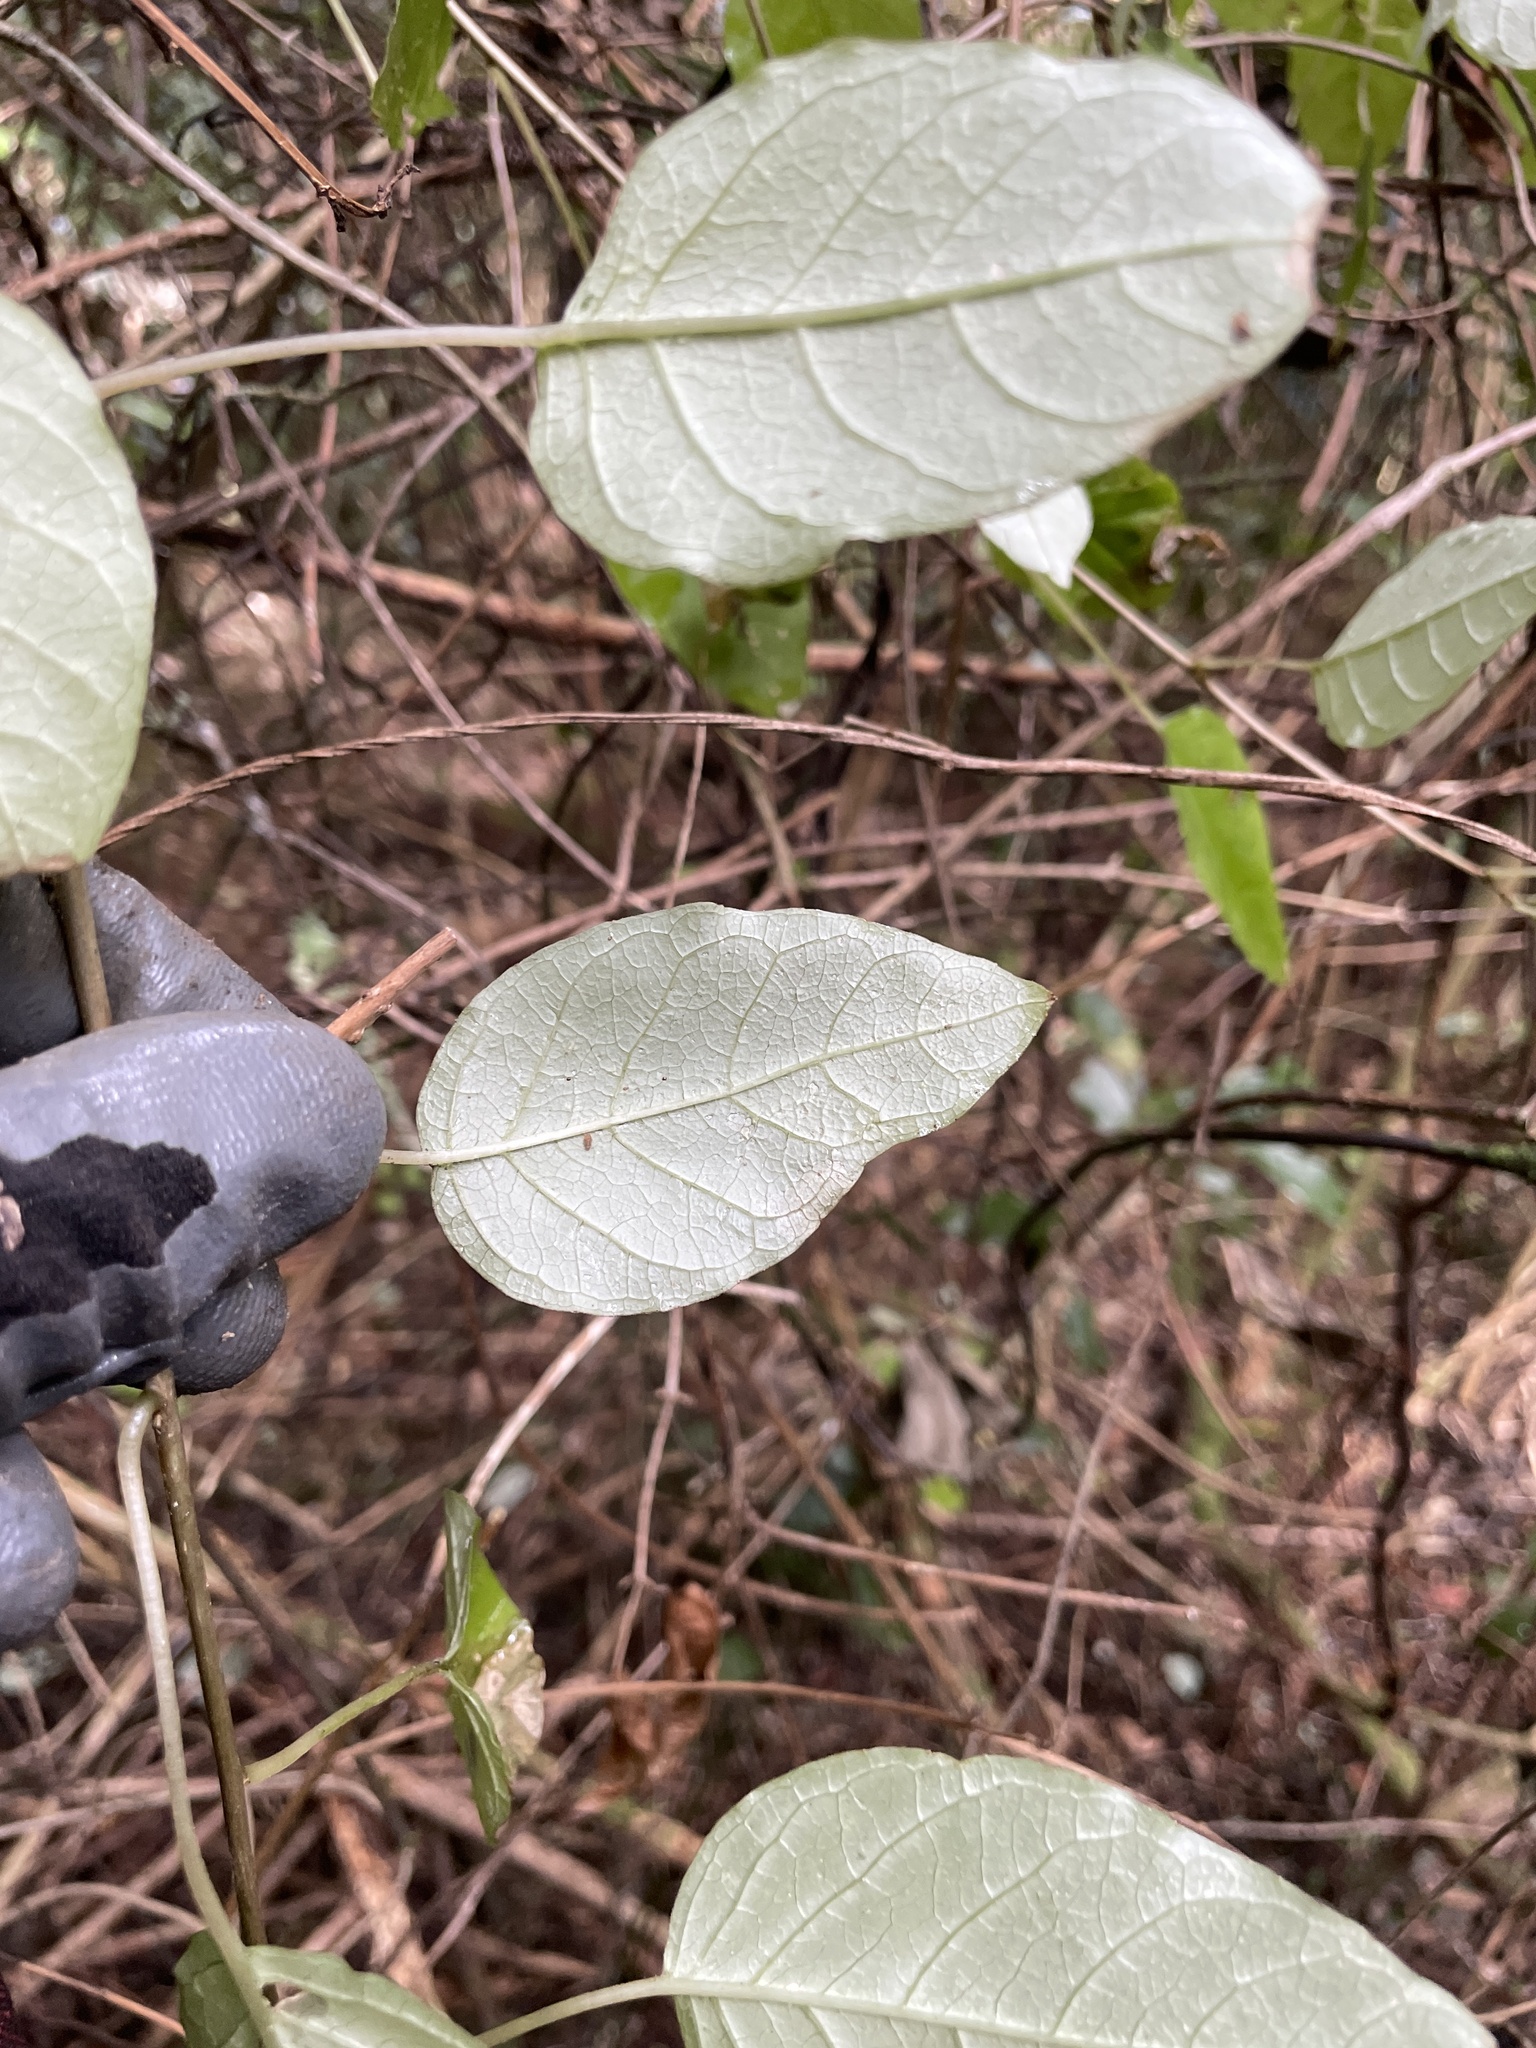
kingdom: Plantae
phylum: Tracheophyta
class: Magnoliopsida
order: Myrtales
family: Onagraceae
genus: Fuchsia
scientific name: Fuchsia colensoi
